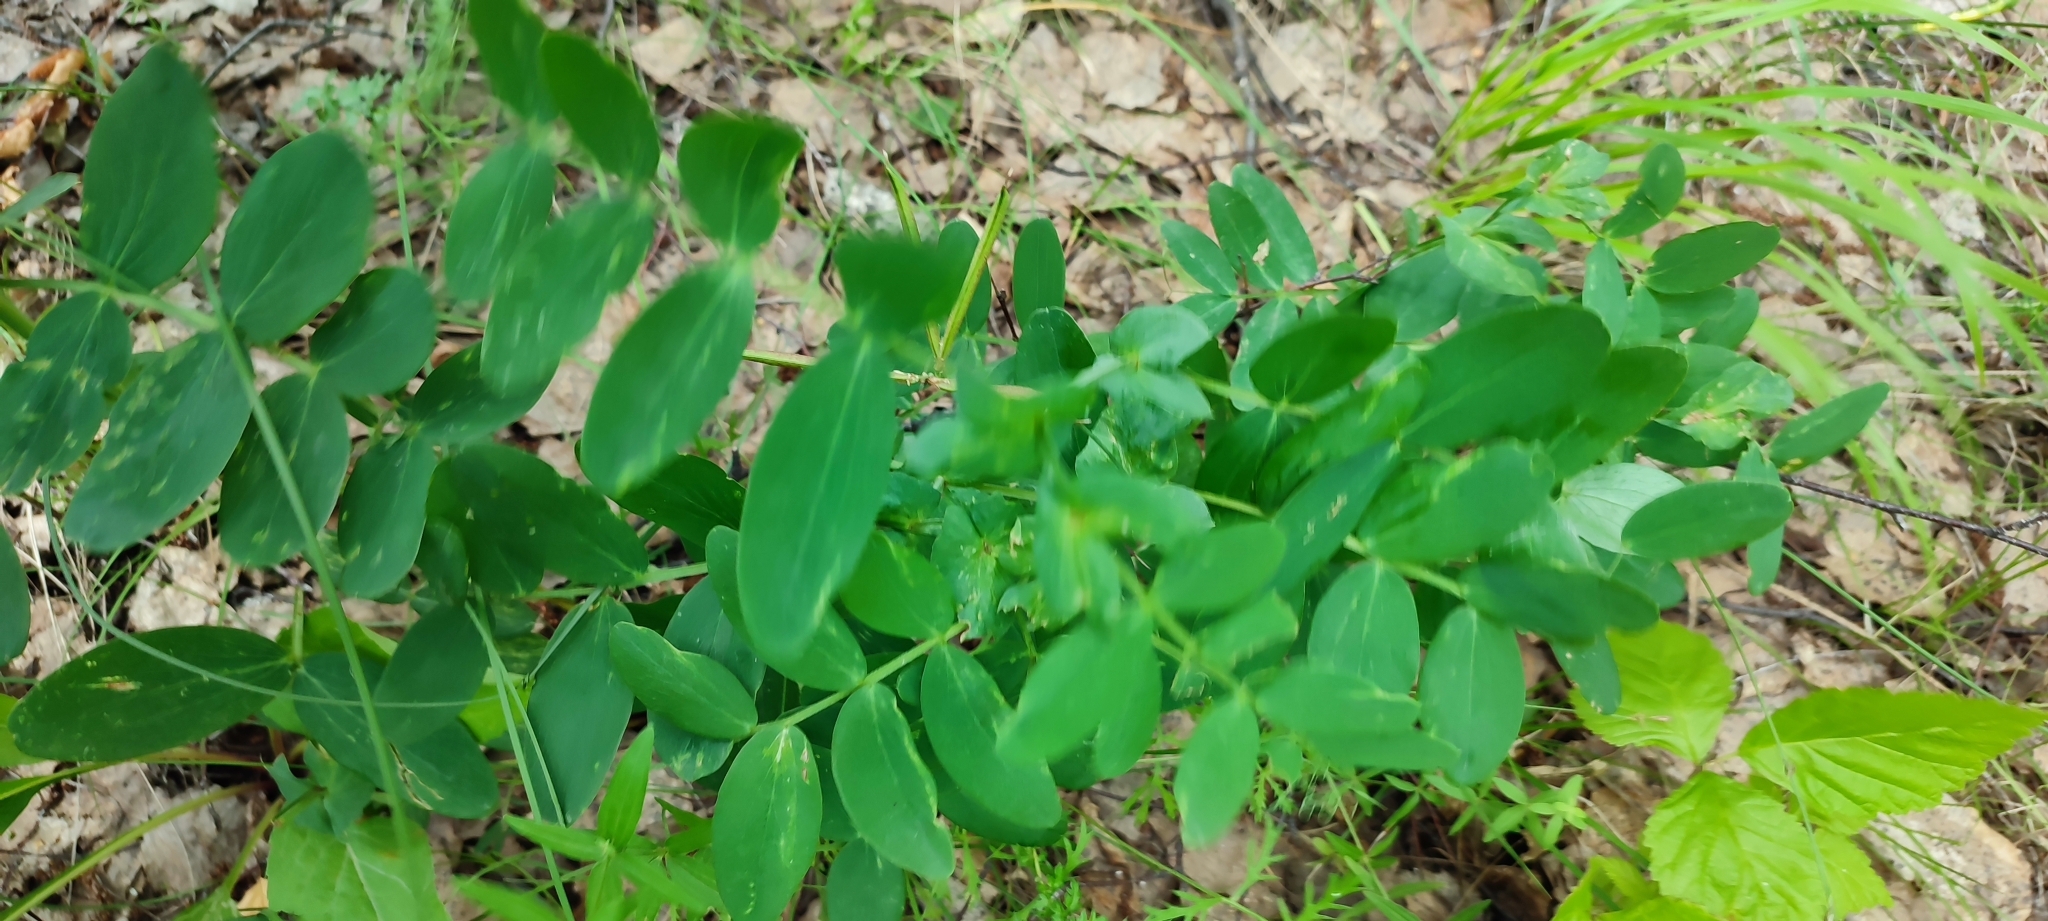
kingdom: Plantae
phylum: Tracheophyta
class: Magnoliopsida
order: Fabales
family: Fabaceae
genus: Lathyrus
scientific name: Lathyrus pisiformis
